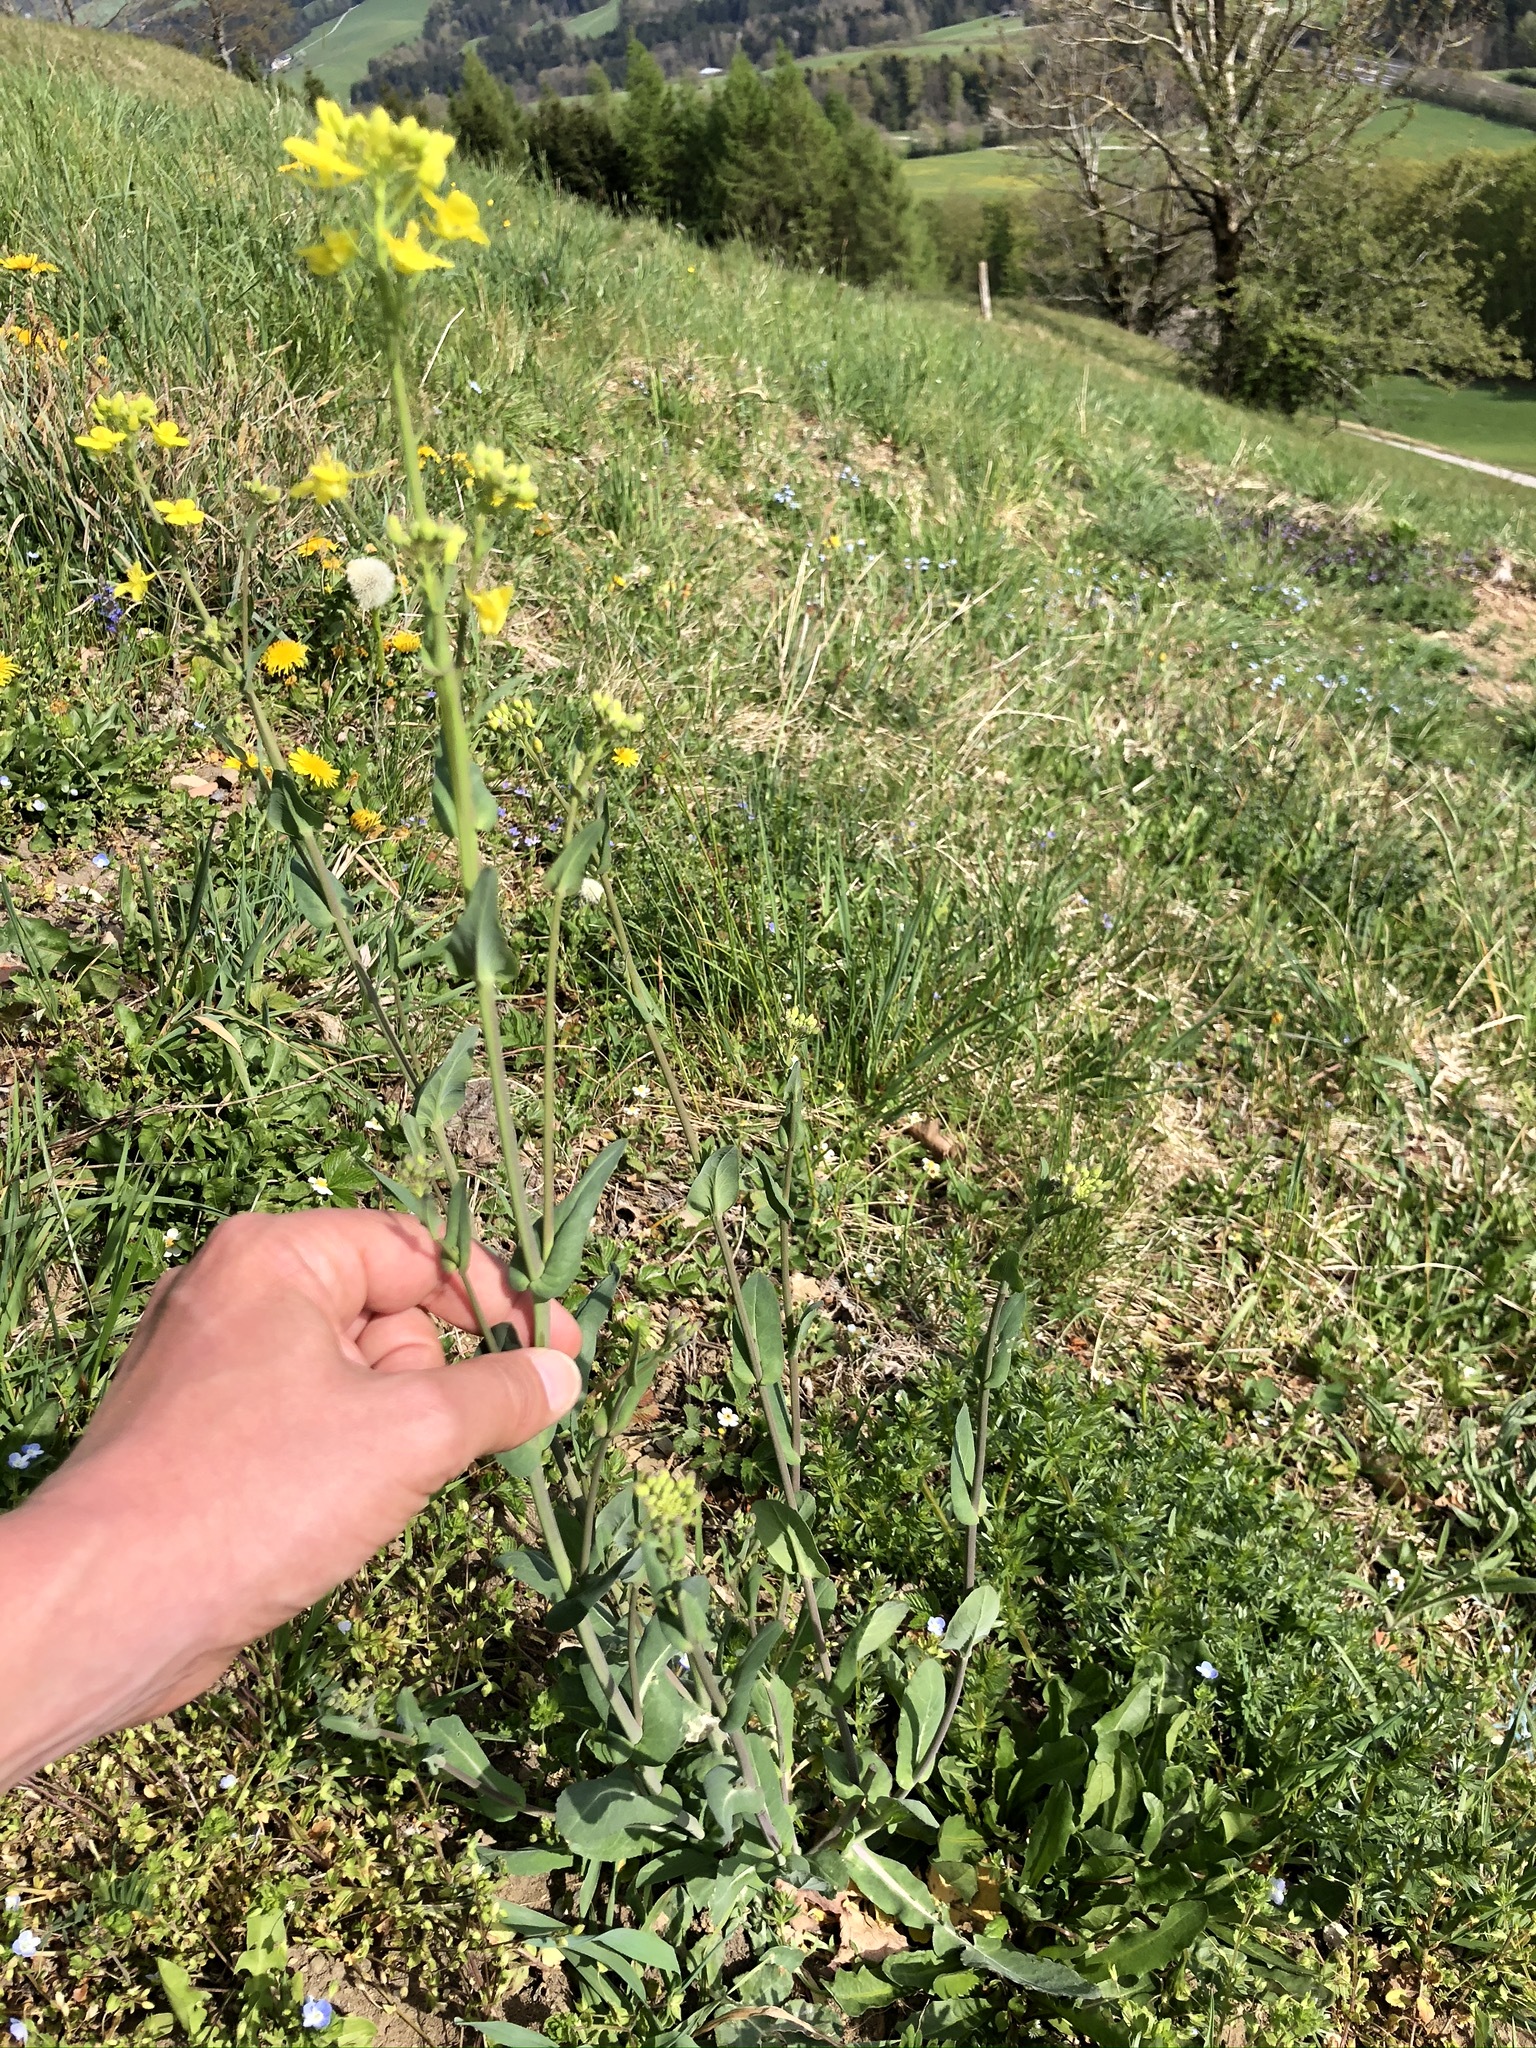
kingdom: Plantae
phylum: Tracheophyta
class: Magnoliopsida
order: Brassicales
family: Brassicaceae
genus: Brassica
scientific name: Brassica napus
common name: Rape
